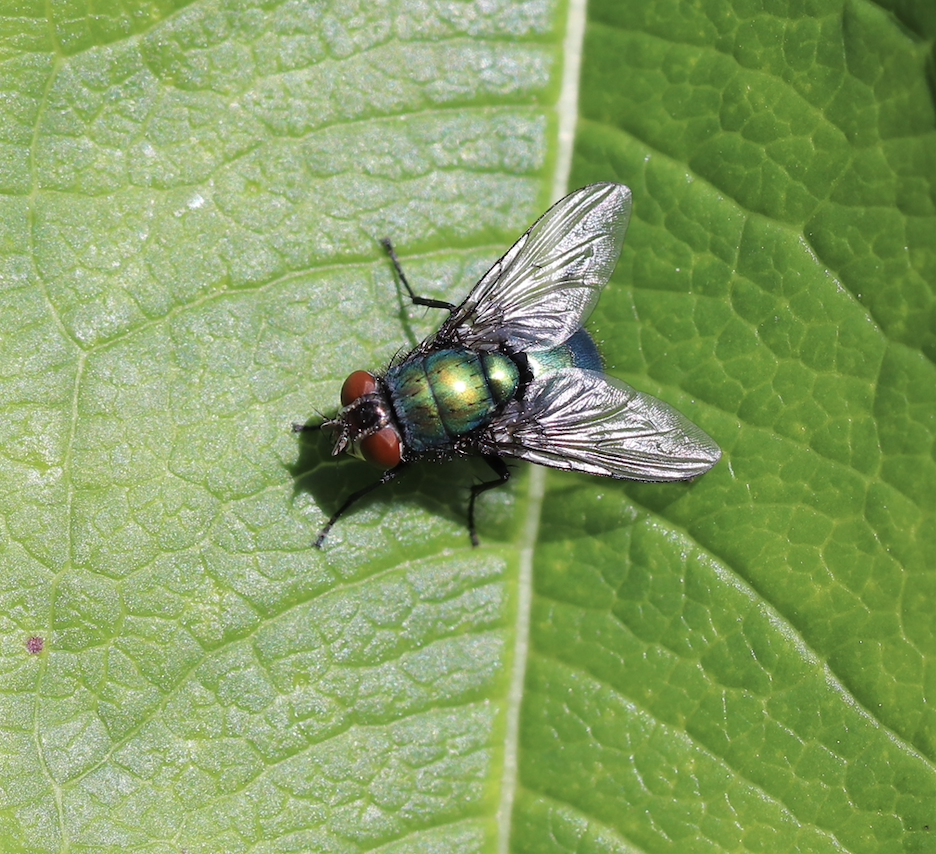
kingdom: Animalia
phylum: Arthropoda
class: Insecta
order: Diptera
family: Calliphoridae
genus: Lucilia
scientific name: Lucilia illustris
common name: Illustrious greenbottle
